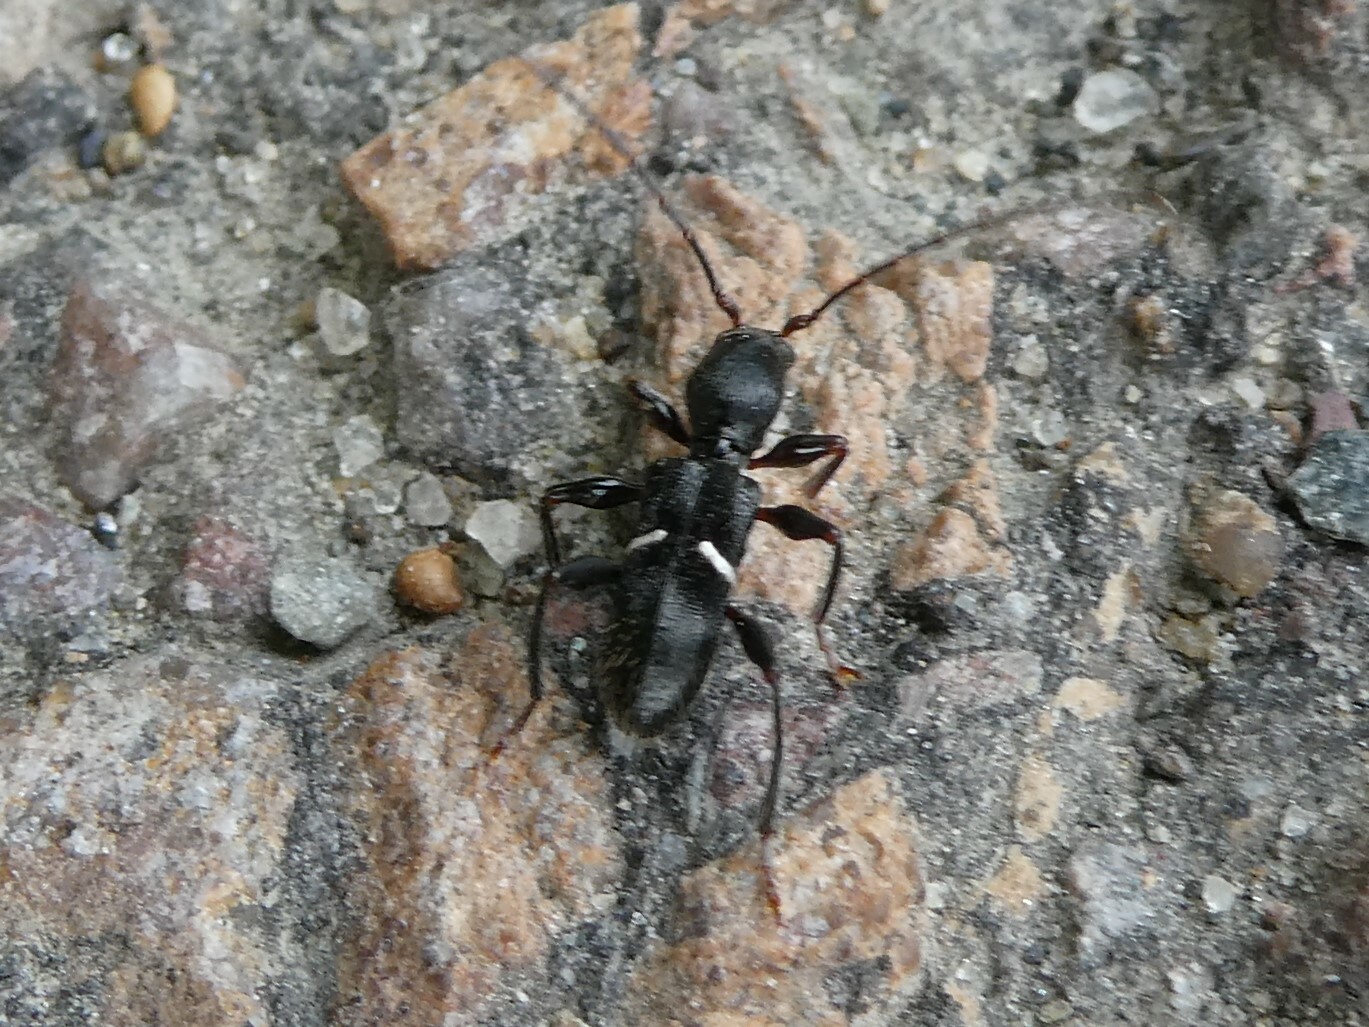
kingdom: Animalia
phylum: Arthropoda
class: Insecta
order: Coleoptera
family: Cerambycidae
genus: Euderces
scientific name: Euderces picipes
